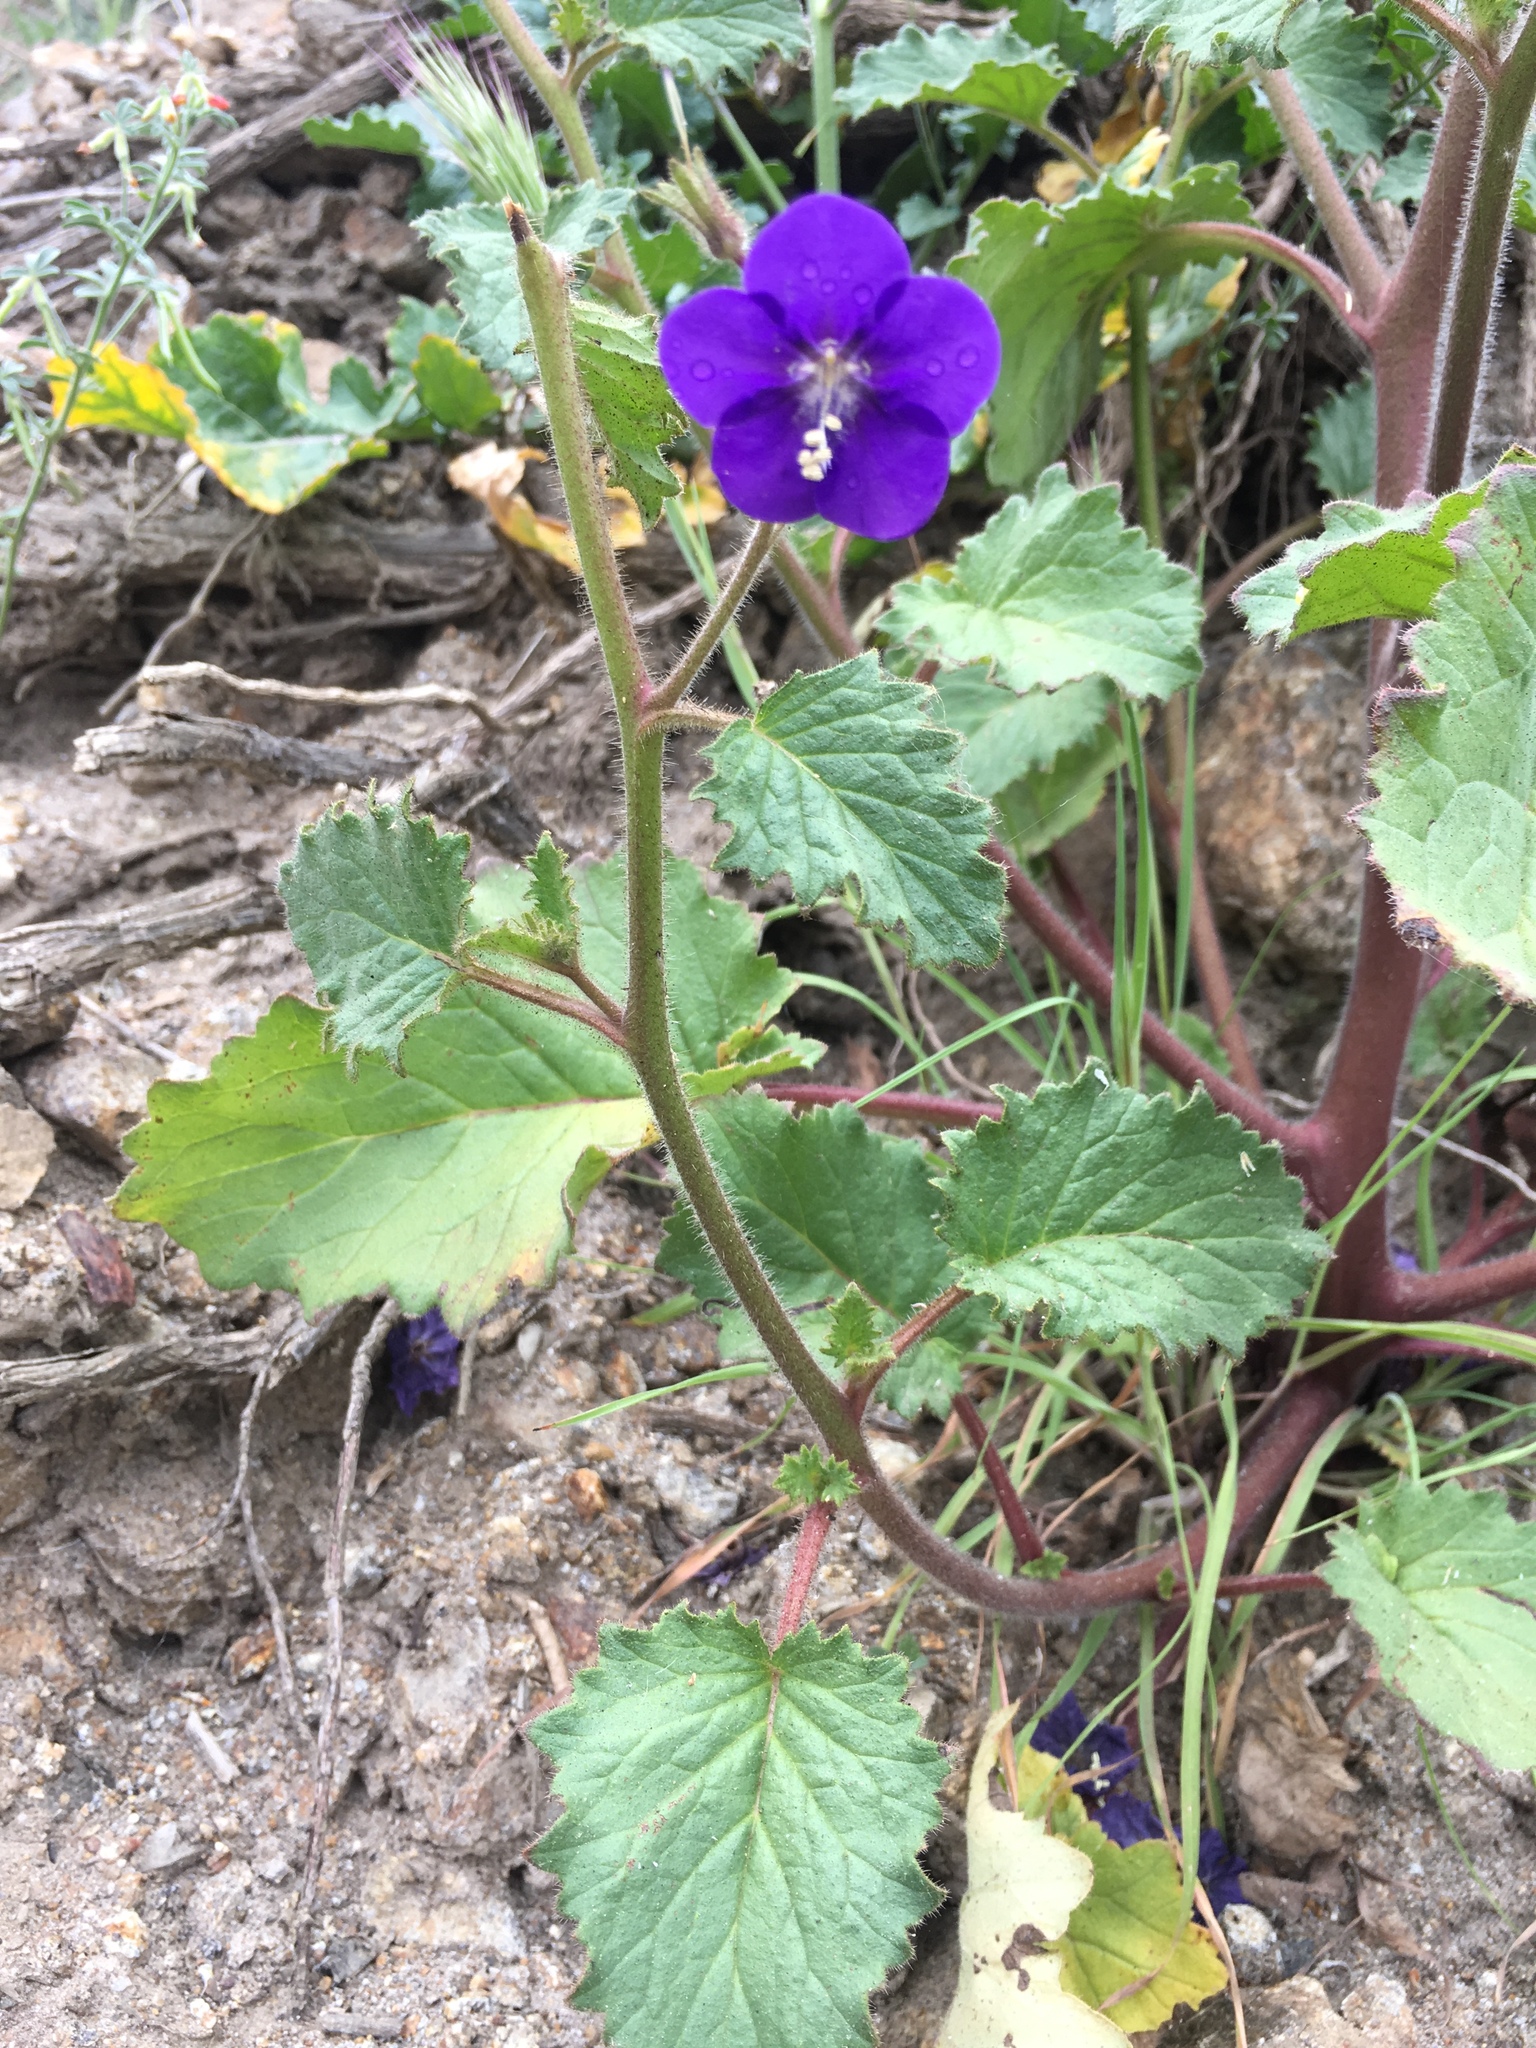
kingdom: Plantae
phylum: Tracheophyta
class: Magnoliopsida
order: Boraginales
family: Hydrophyllaceae
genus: Phacelia
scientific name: Phacelia parryi
